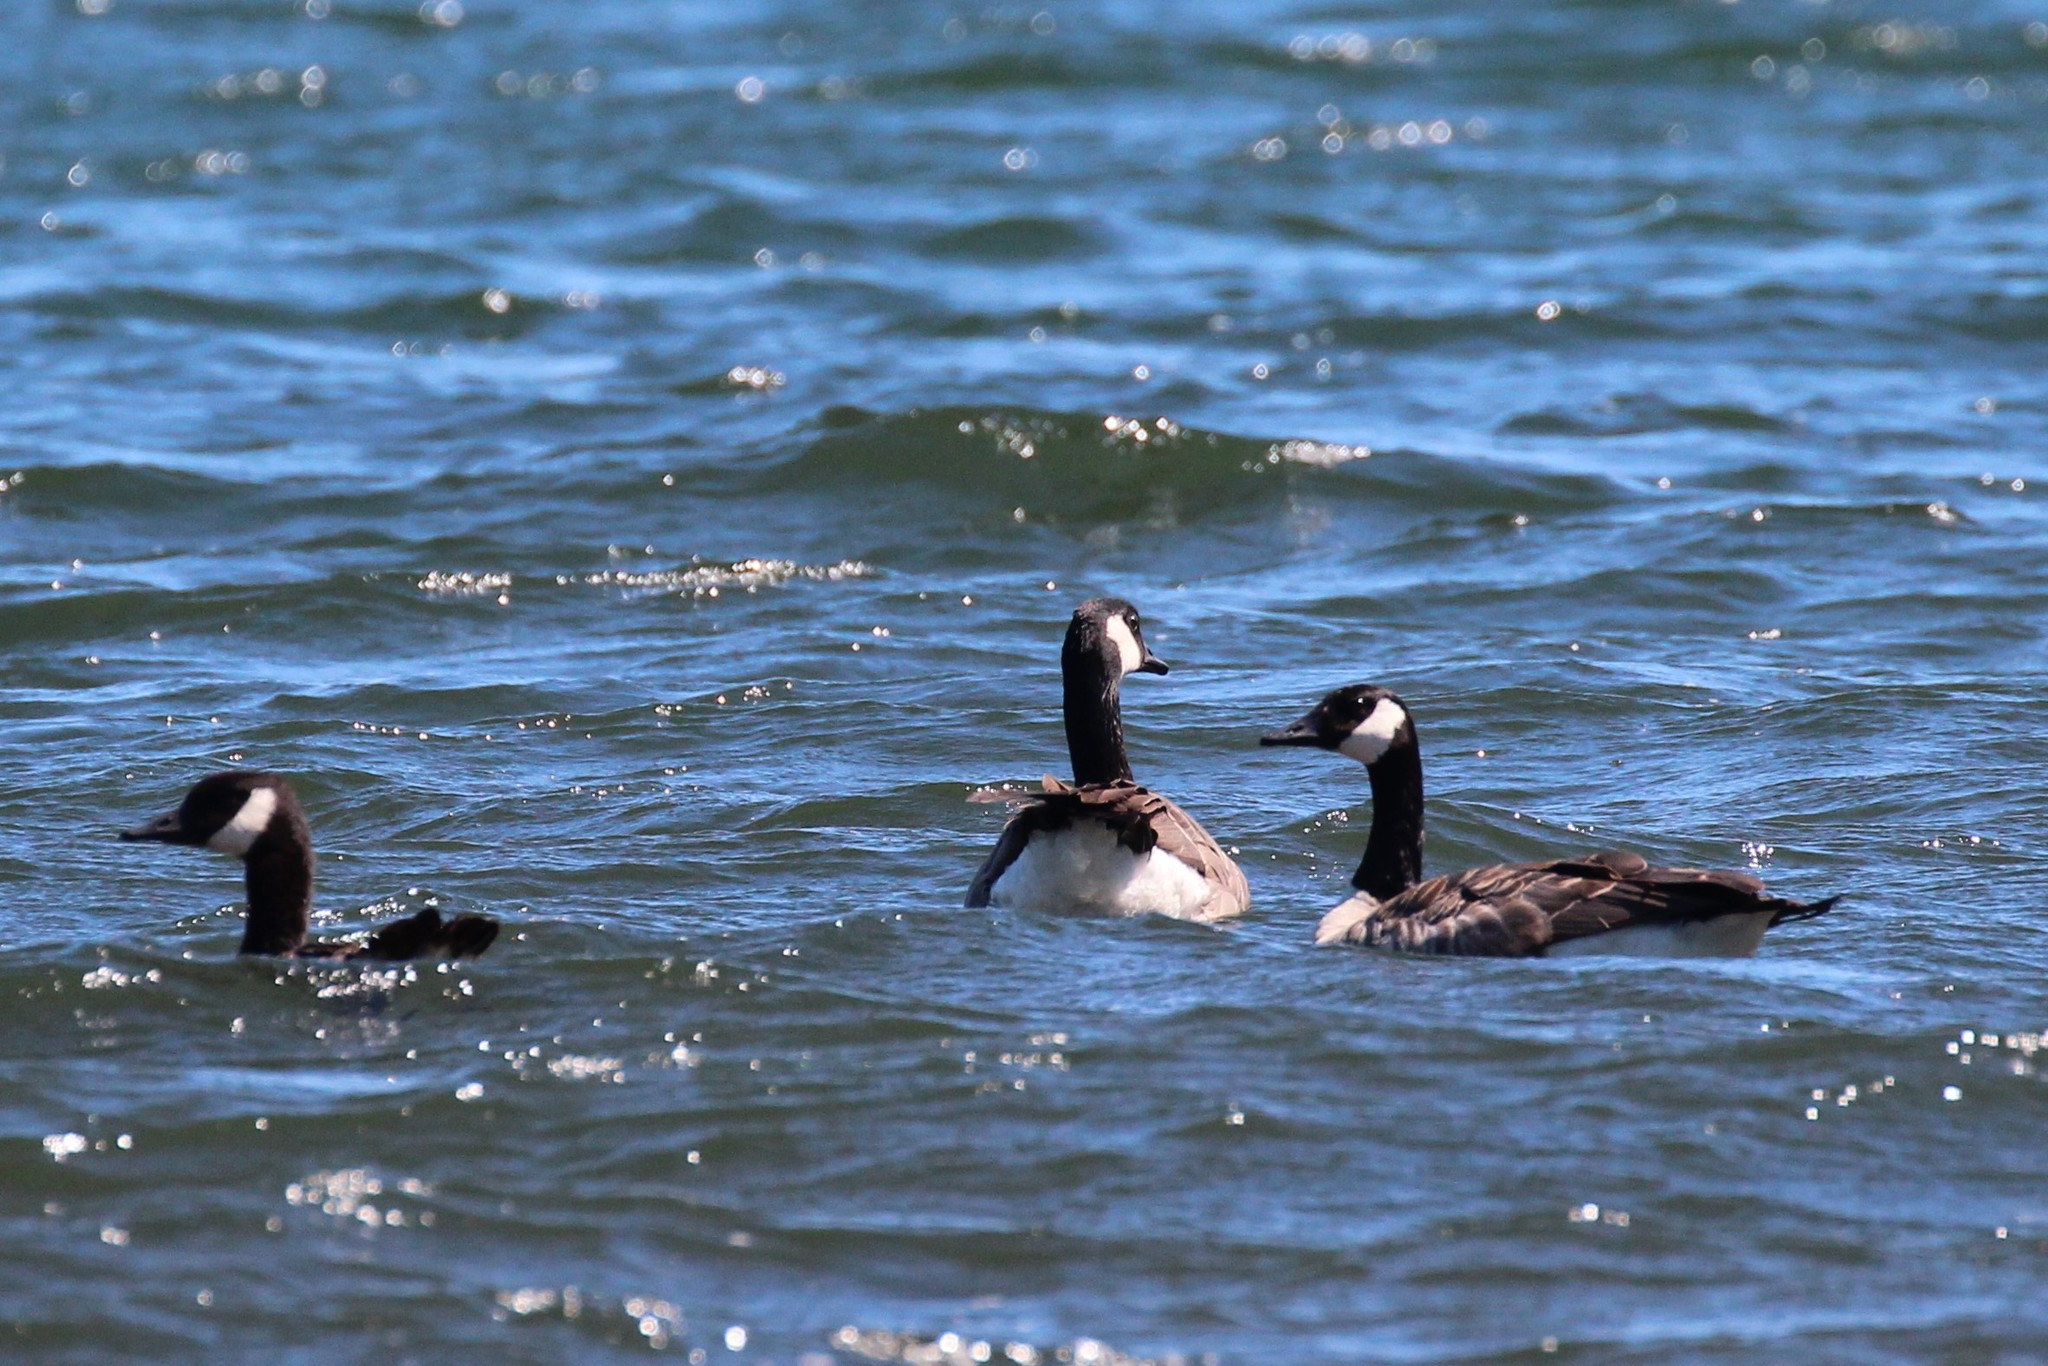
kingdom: Animalia
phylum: Chordata
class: Aves
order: Anseriformes
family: Anatidae
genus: Branta
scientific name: Branta canadensis
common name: Canada goose
